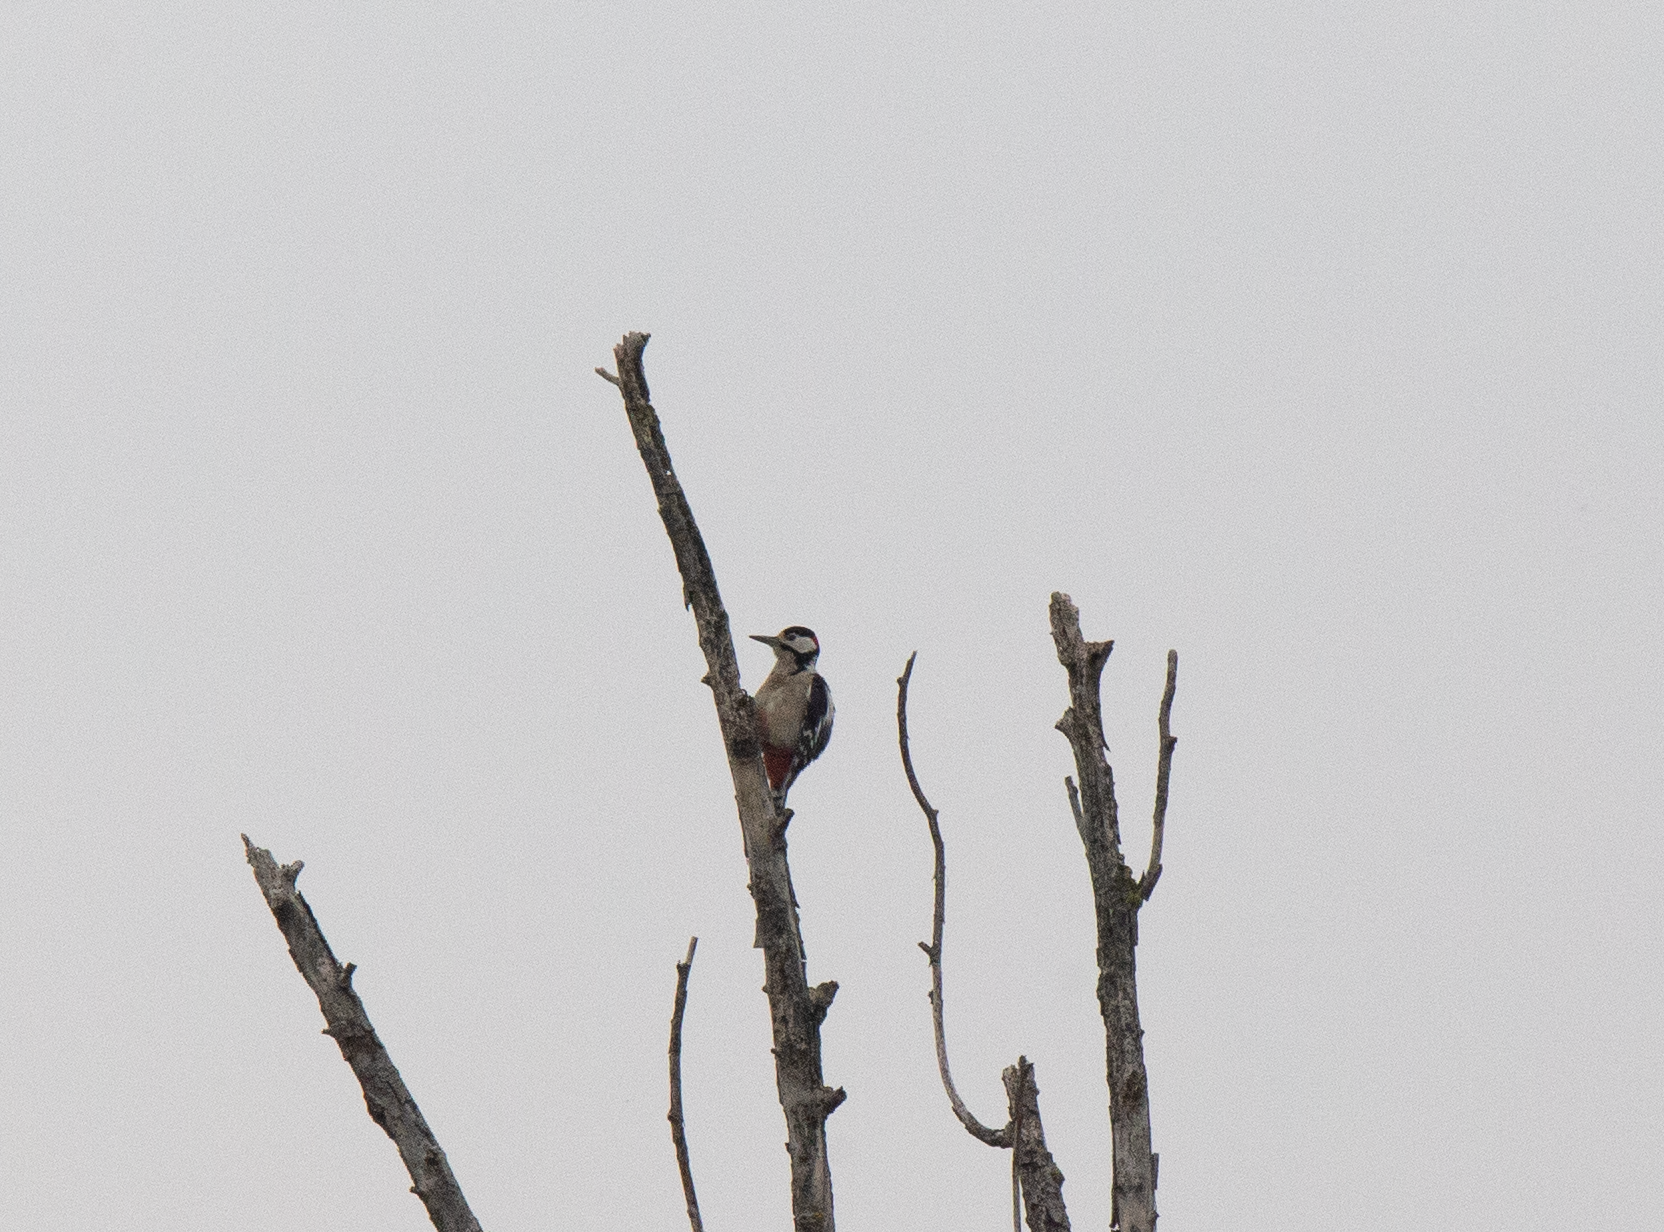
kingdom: Animalia
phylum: Chordata
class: Aves
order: Piciformes
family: Picidae
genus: Dendrocopos
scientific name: Dendrocopos major
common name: Great spotted woodpecker
